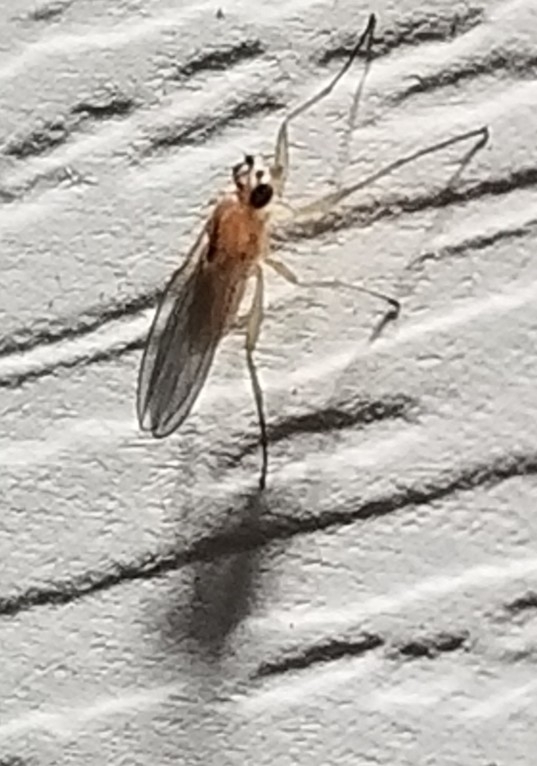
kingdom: Animalia
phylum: Arthropoda
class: Insecta
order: Diptera
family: Lonchopteridae
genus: Lonchoptera
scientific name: Lonchoptera bifurcata
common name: Spear-winged fly
